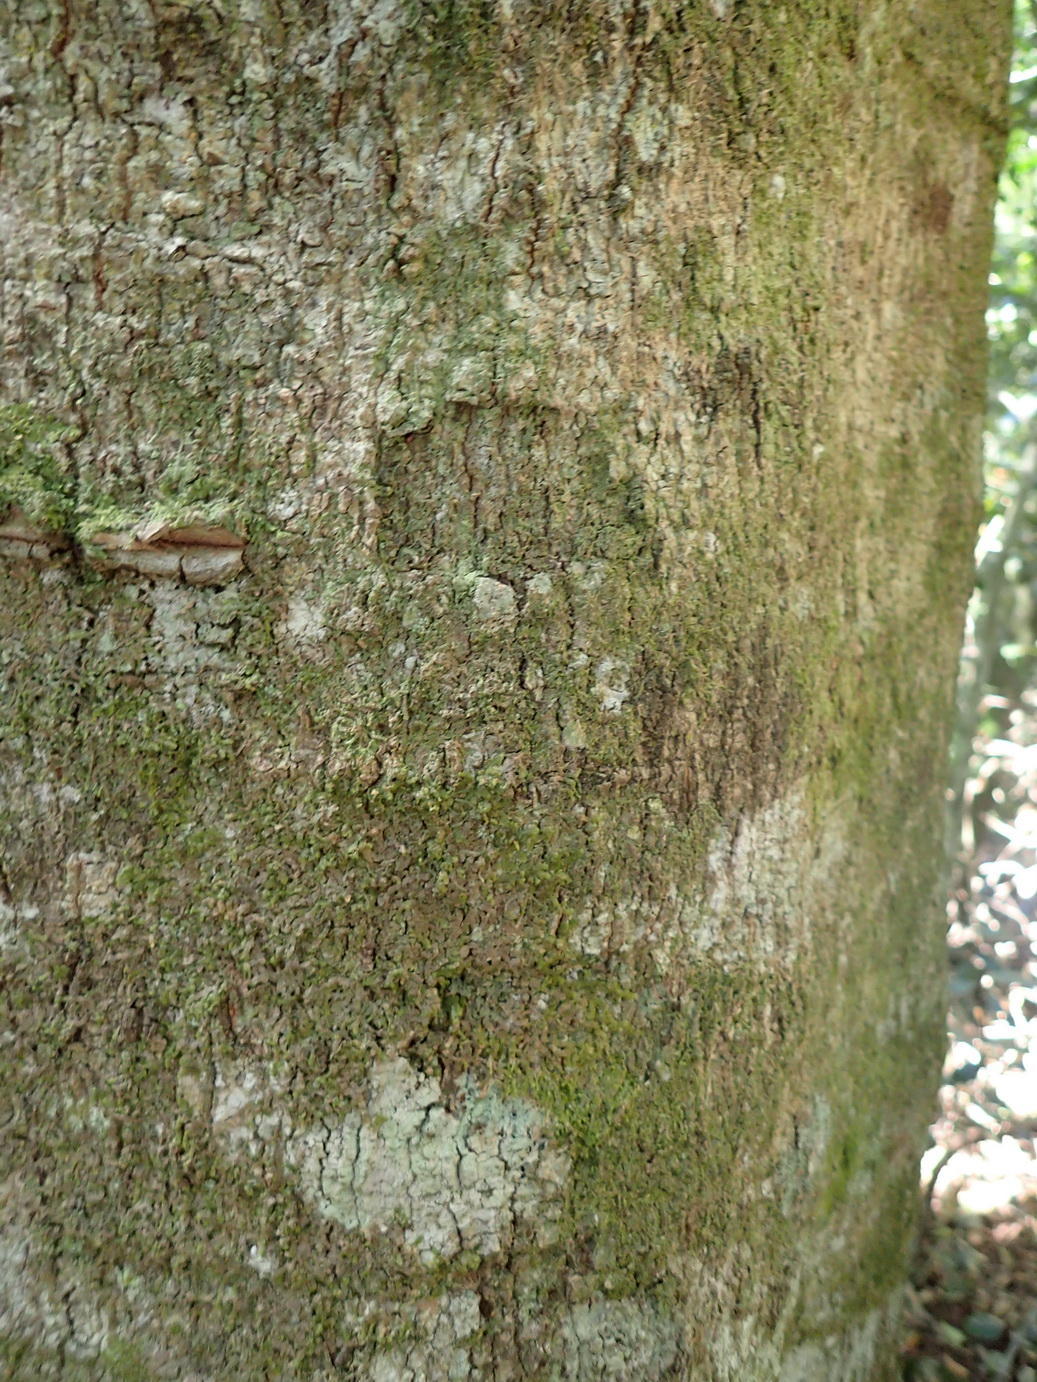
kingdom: Plantae
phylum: Tracheophyta
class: Magnoliopsida
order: Ericales
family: Primulaceae
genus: Myrsine
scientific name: Myrsine melanophloeos
